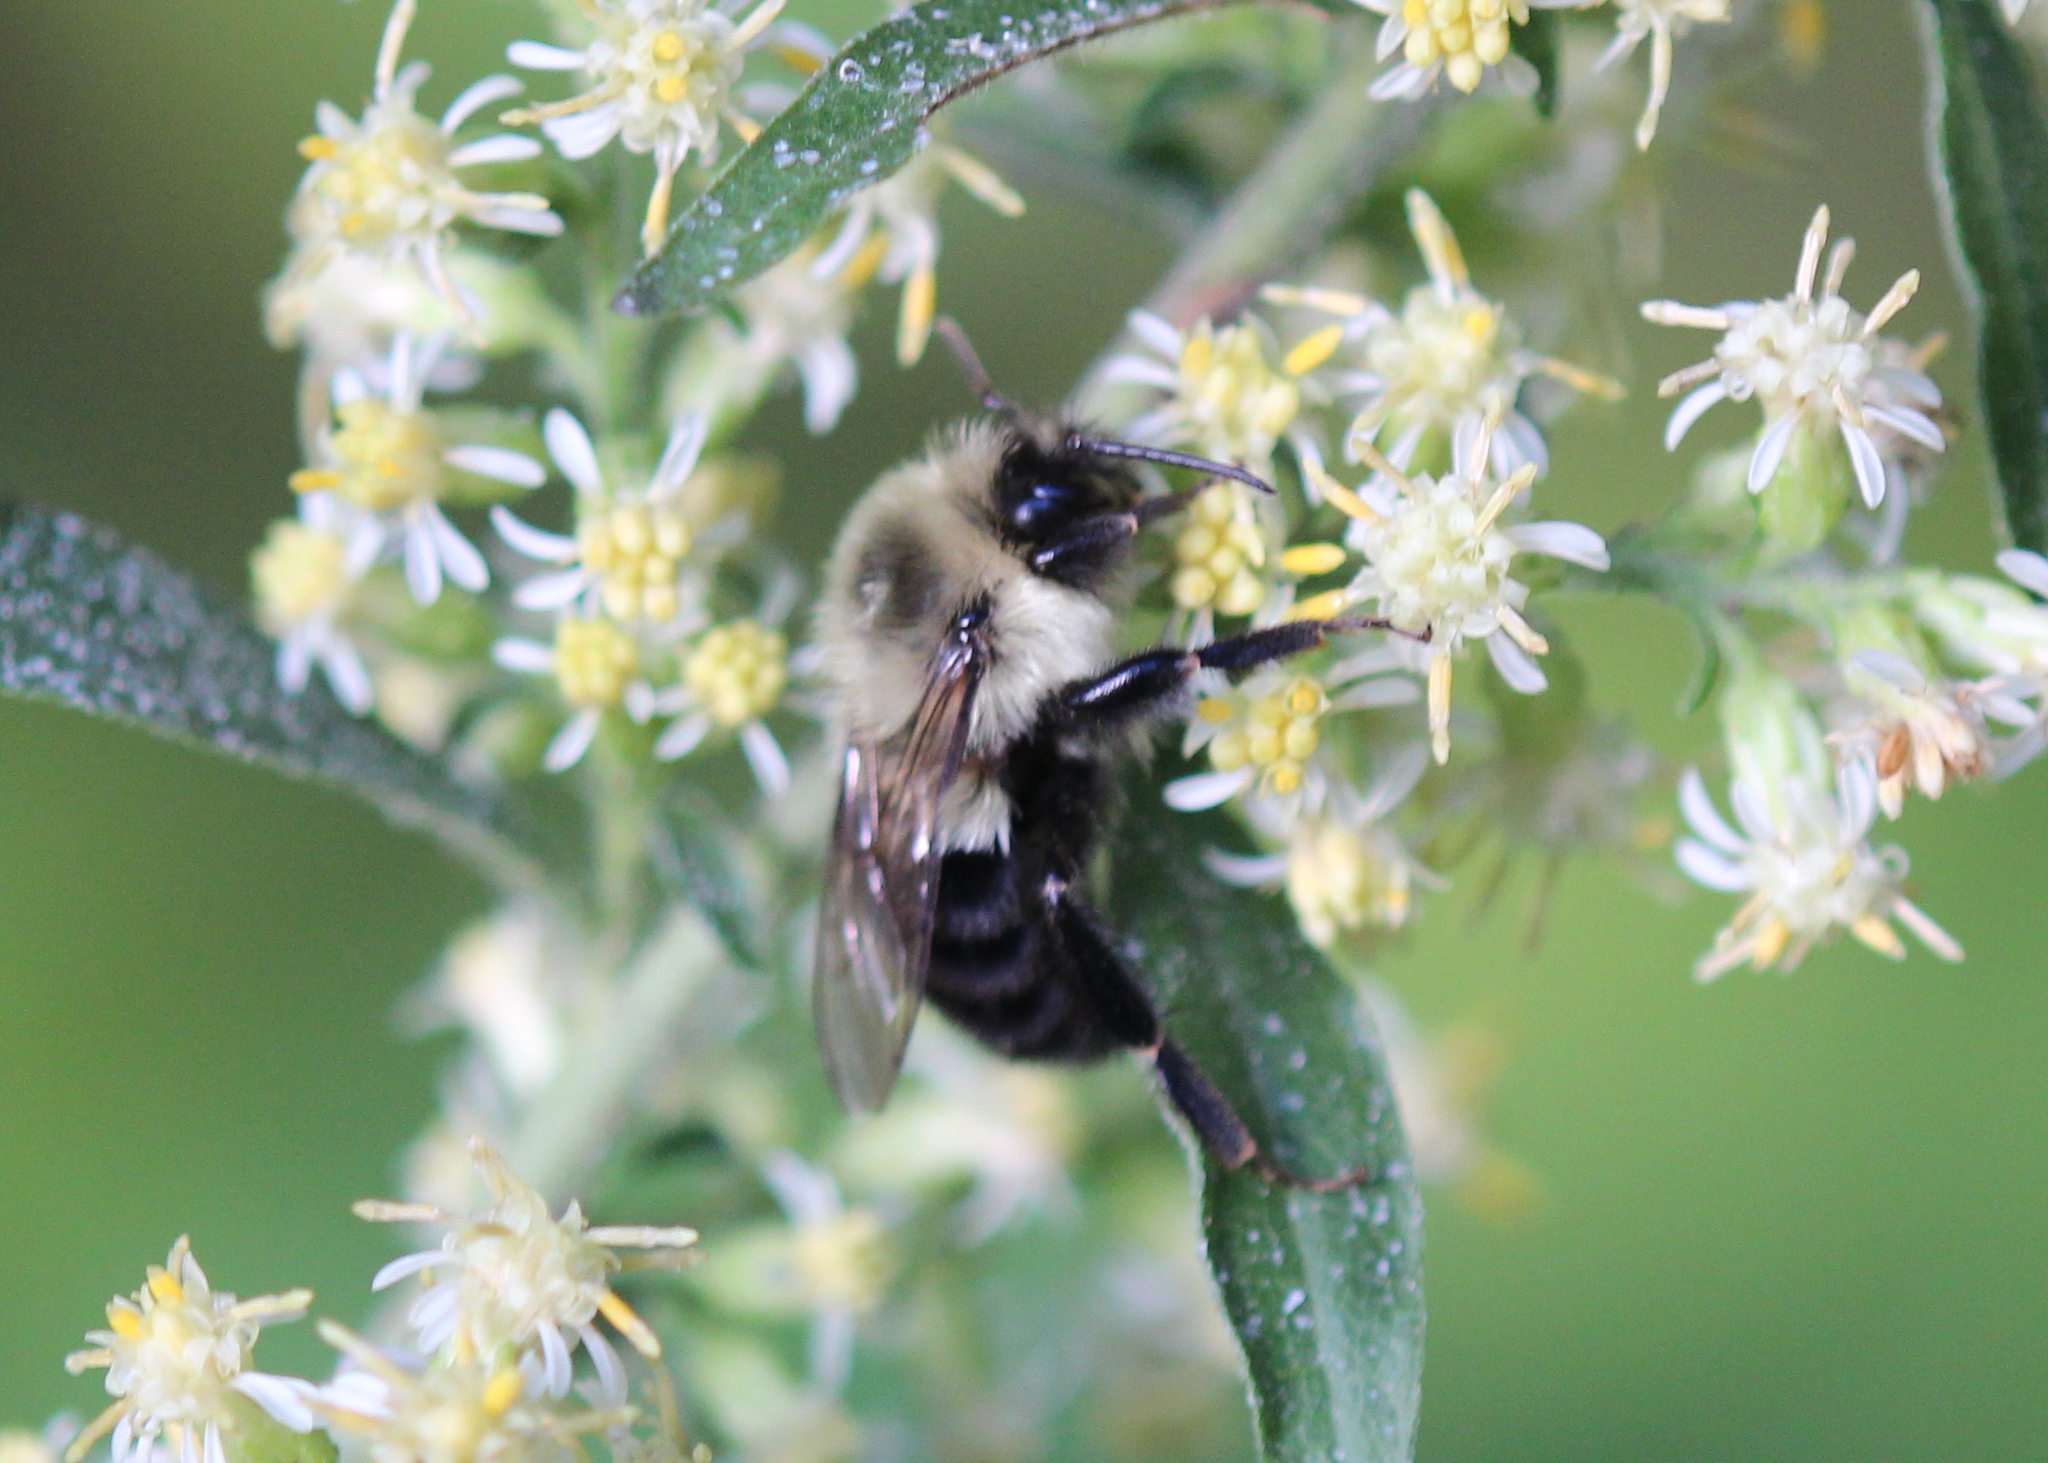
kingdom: Animalia
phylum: Arthropoda
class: Insecta
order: Hymenoptera
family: Apidae
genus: Bombus
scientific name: Bombus impatiens
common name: Common eastern bumble bee
